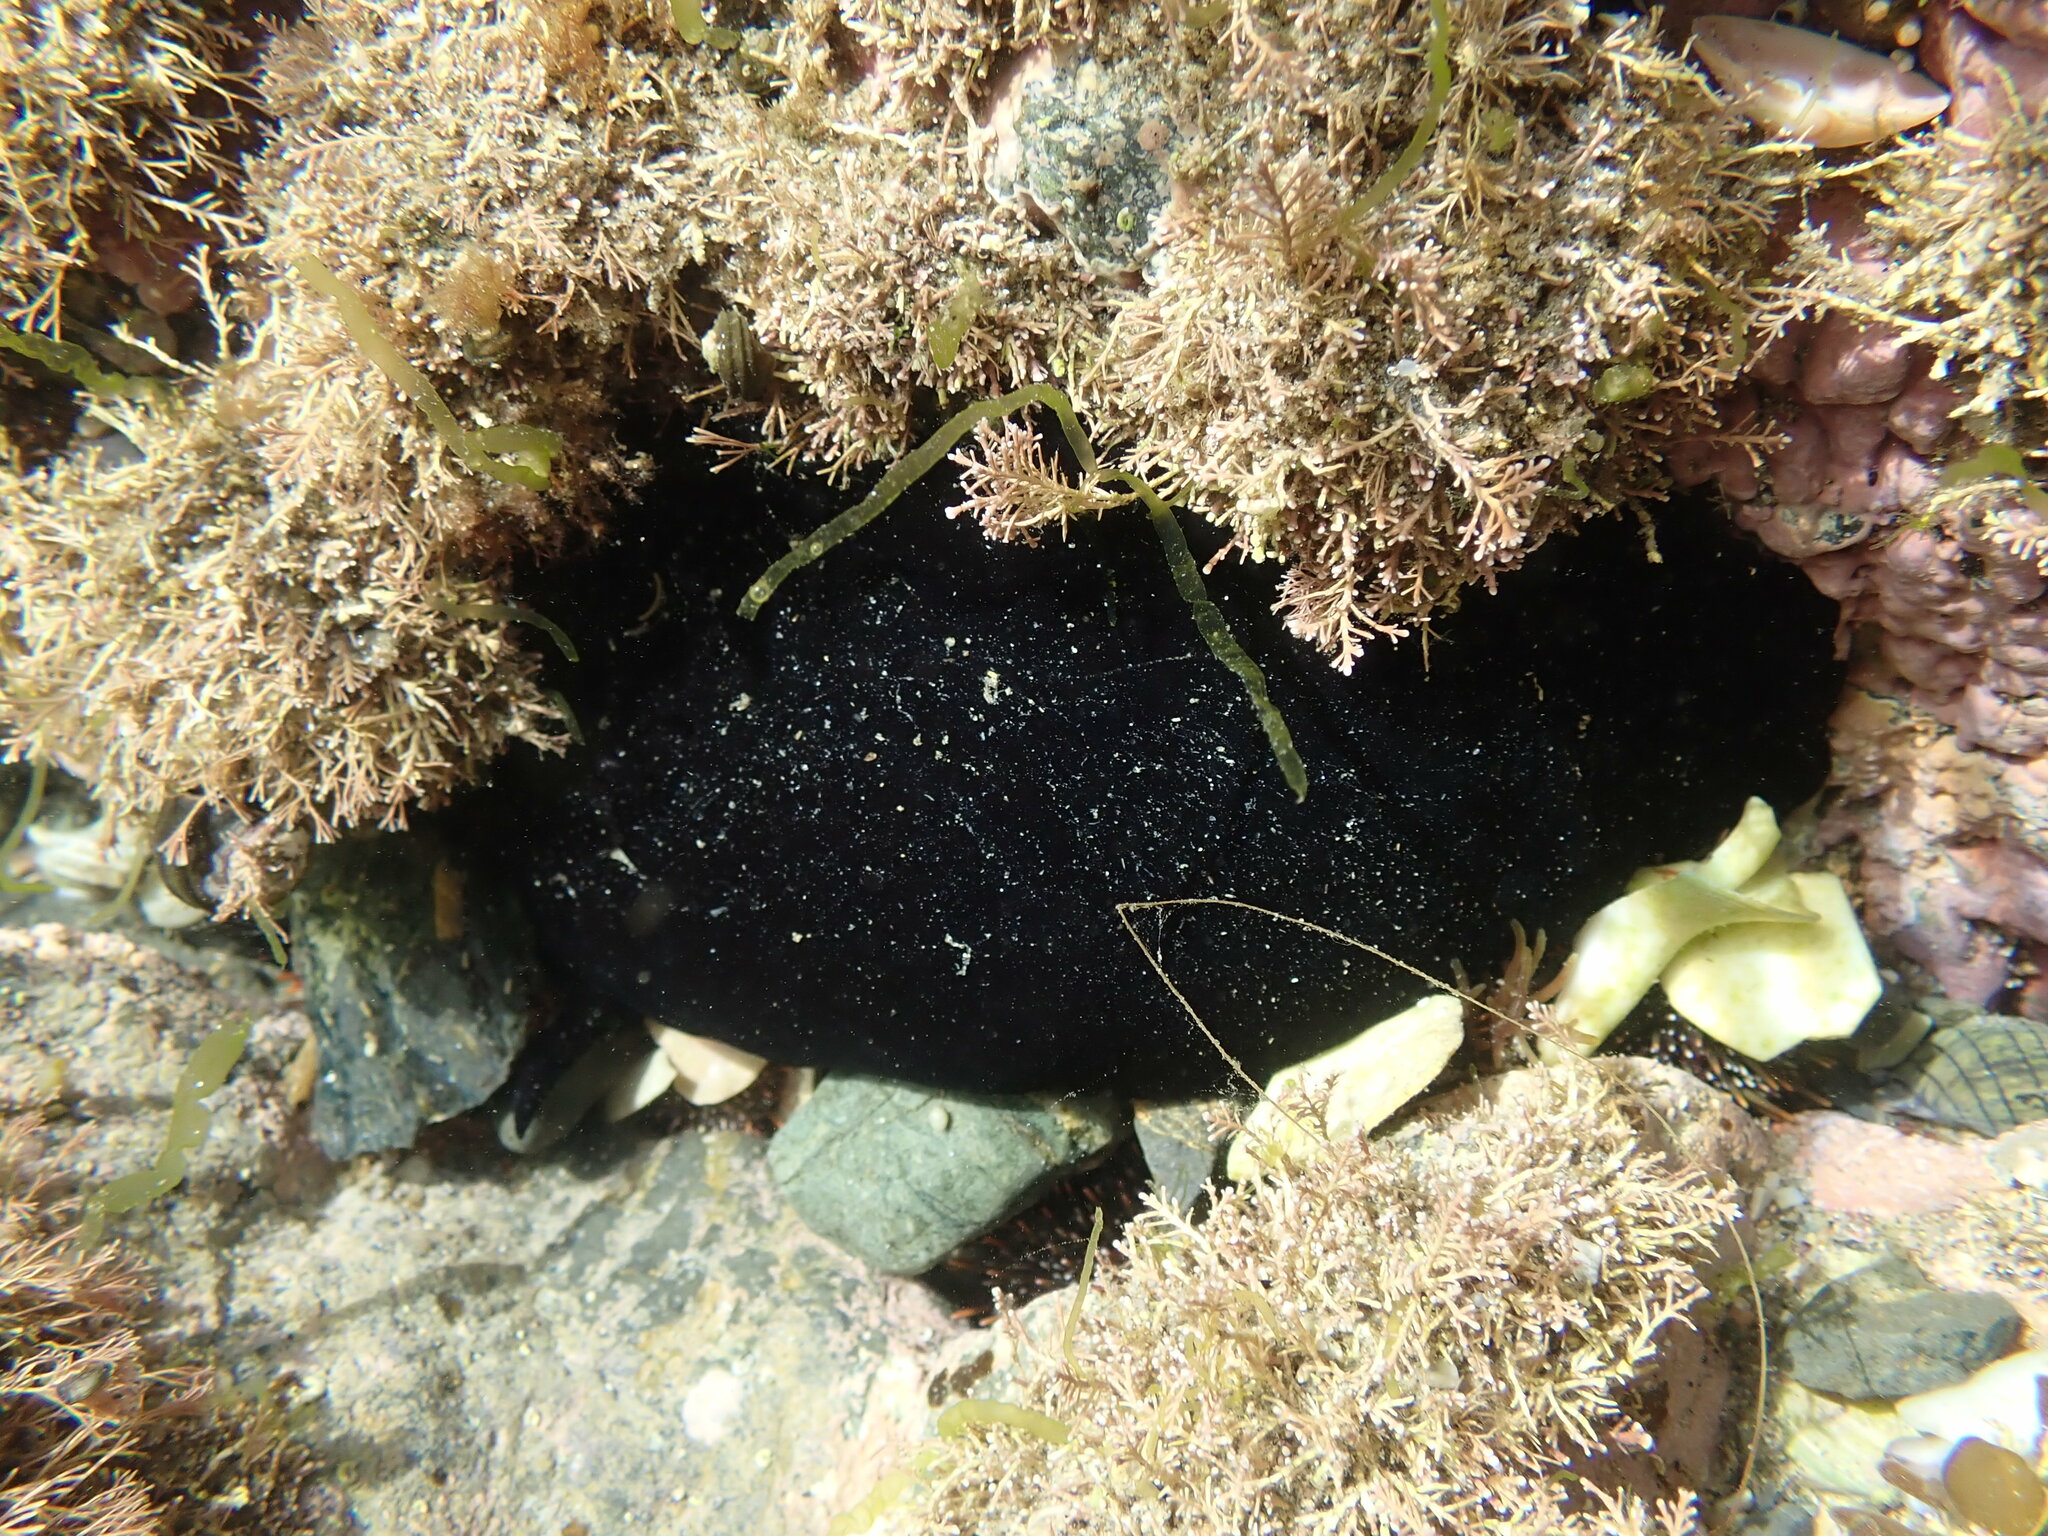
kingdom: Animalia
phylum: Mollusca
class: Gastropoda
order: Lepetellida
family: Fissurellidae
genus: Scutus
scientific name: Scutus breviculus
